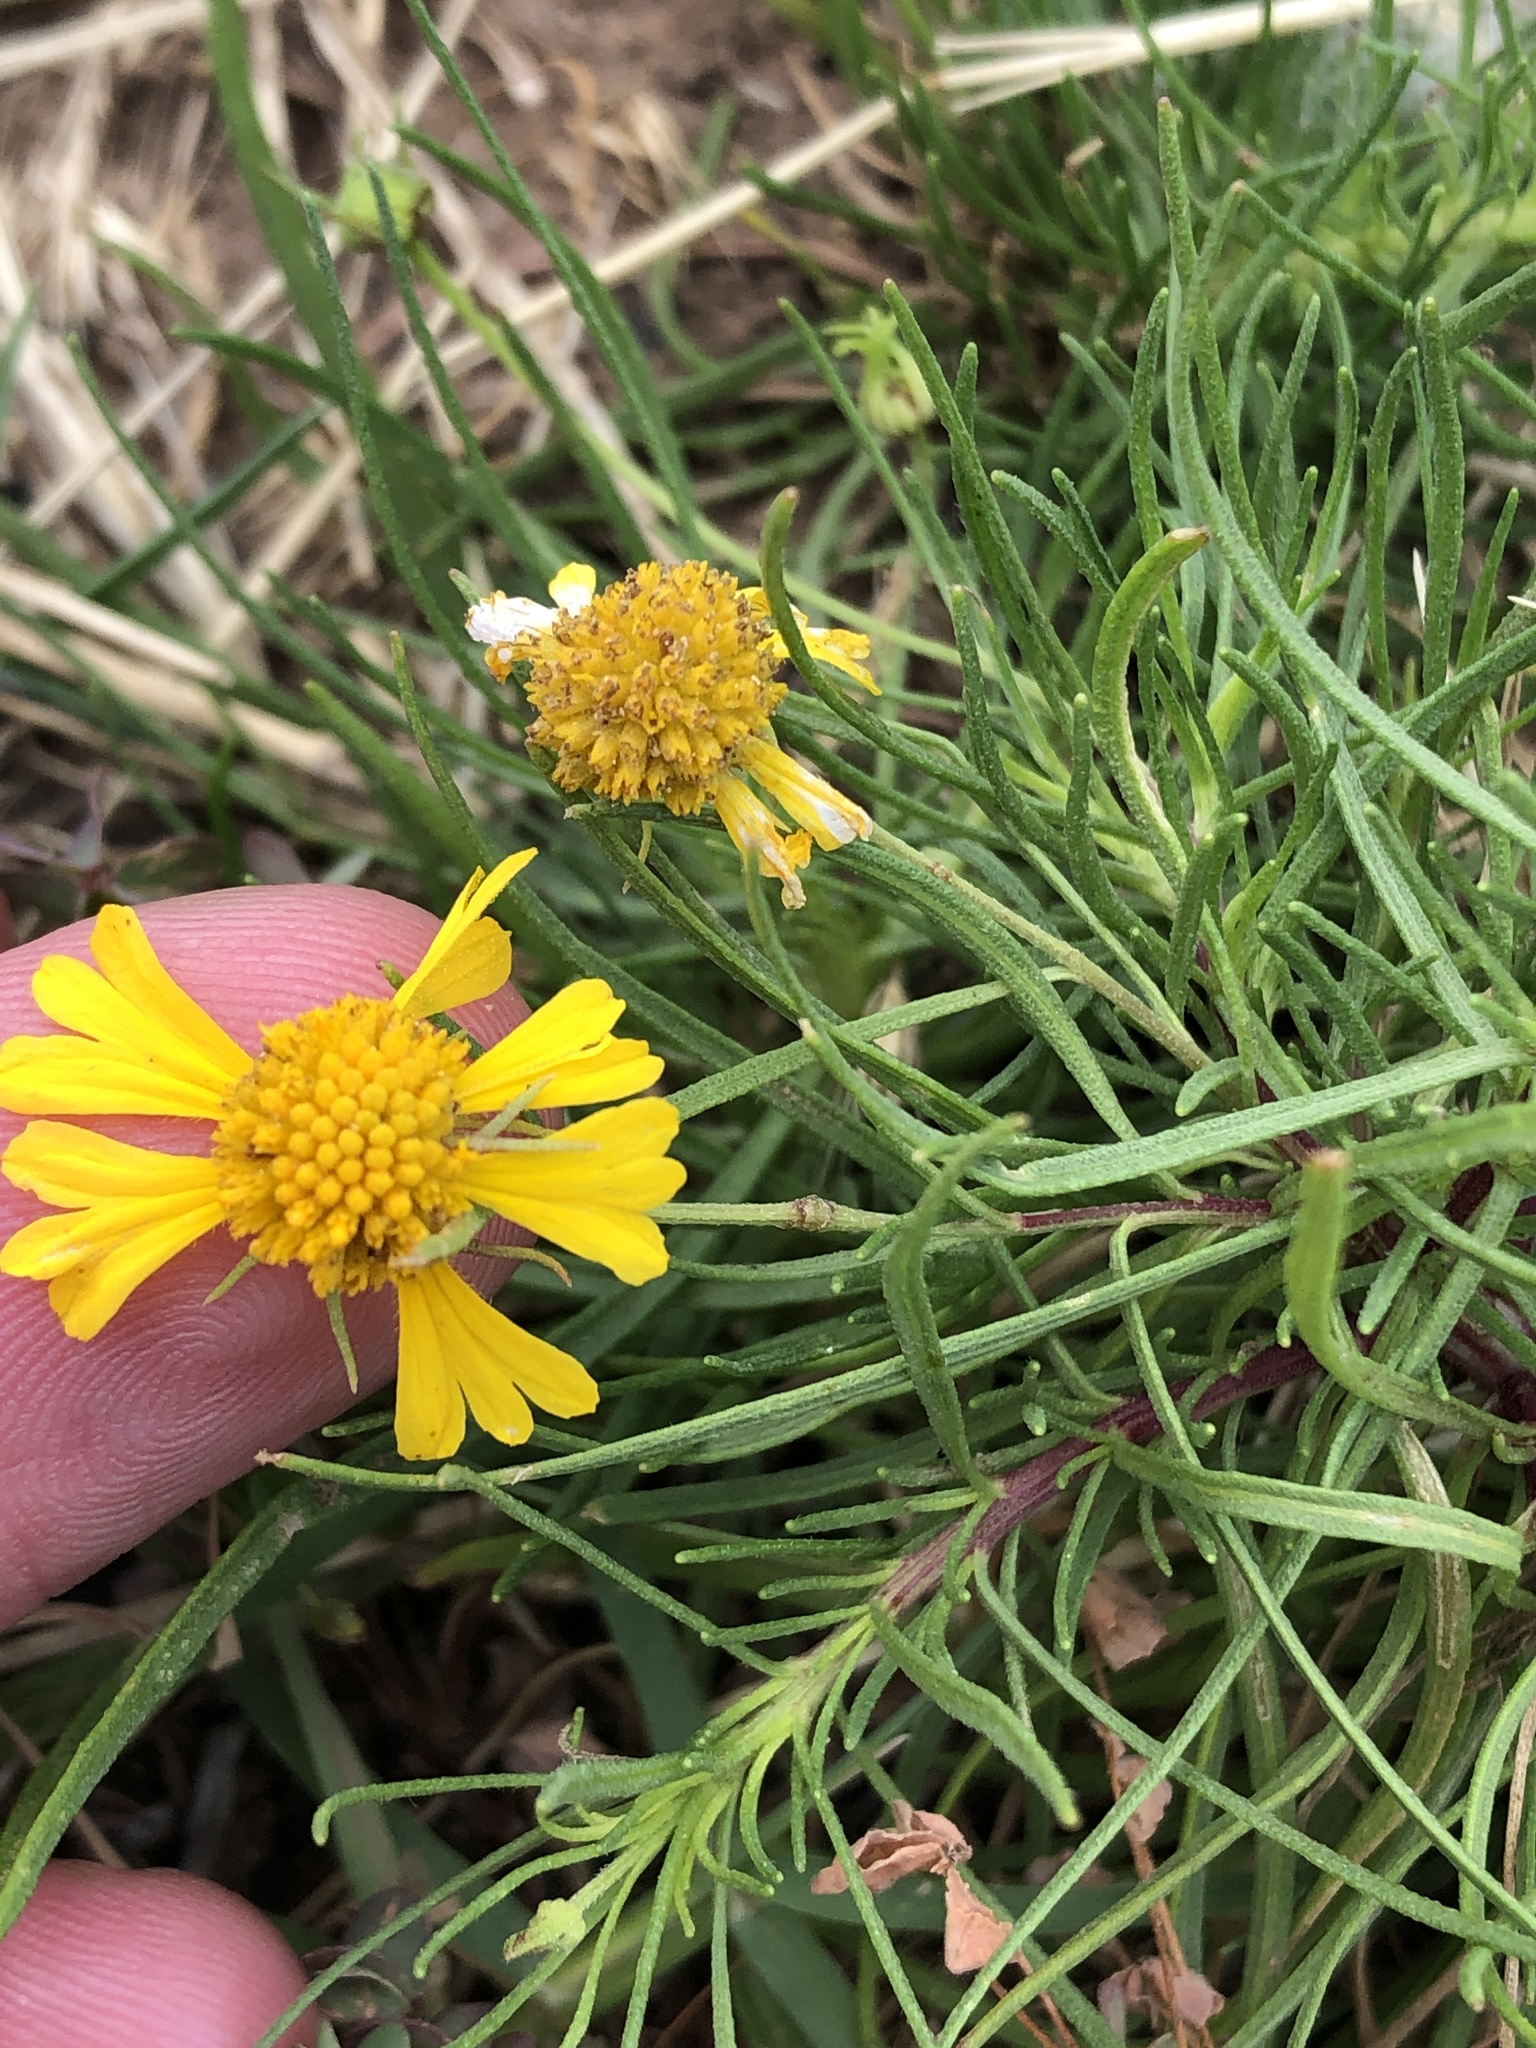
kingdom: Plantae
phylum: Tracheophyta
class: Magnoliopsida
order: Asterales
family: Asteraceae
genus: Helenium
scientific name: Helenium amarum
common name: Bitter sneezeweed
